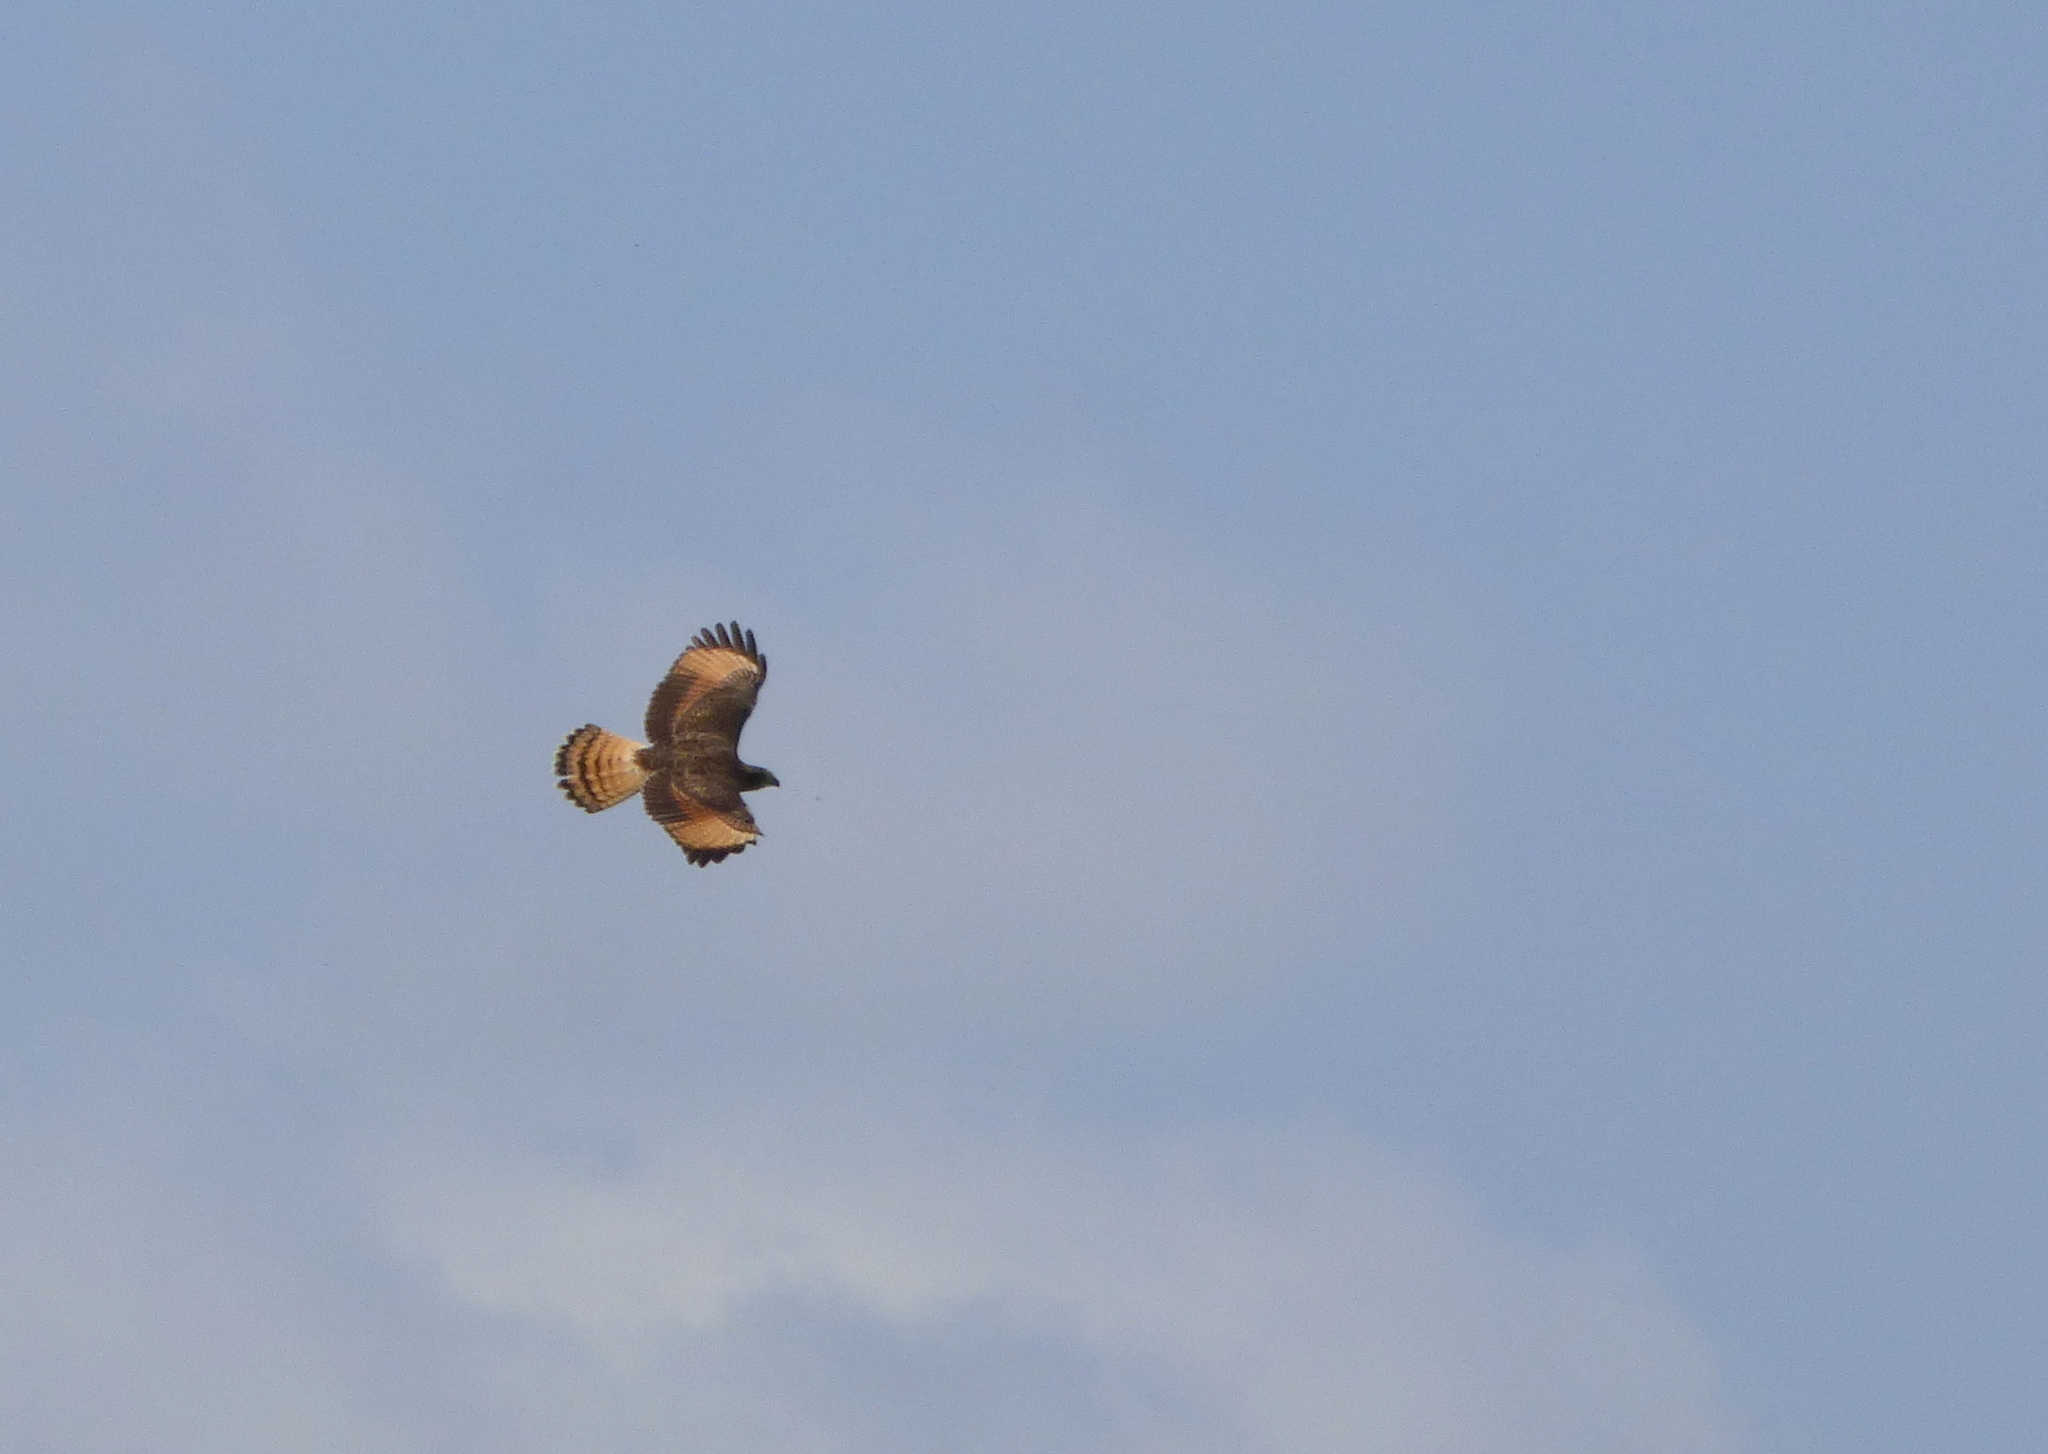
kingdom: Animalia
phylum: Chordata
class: Aves
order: Accipitriformes
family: Accipitridae
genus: Rupornis
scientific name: Rupornis magnirostris
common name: Roadside hawk
